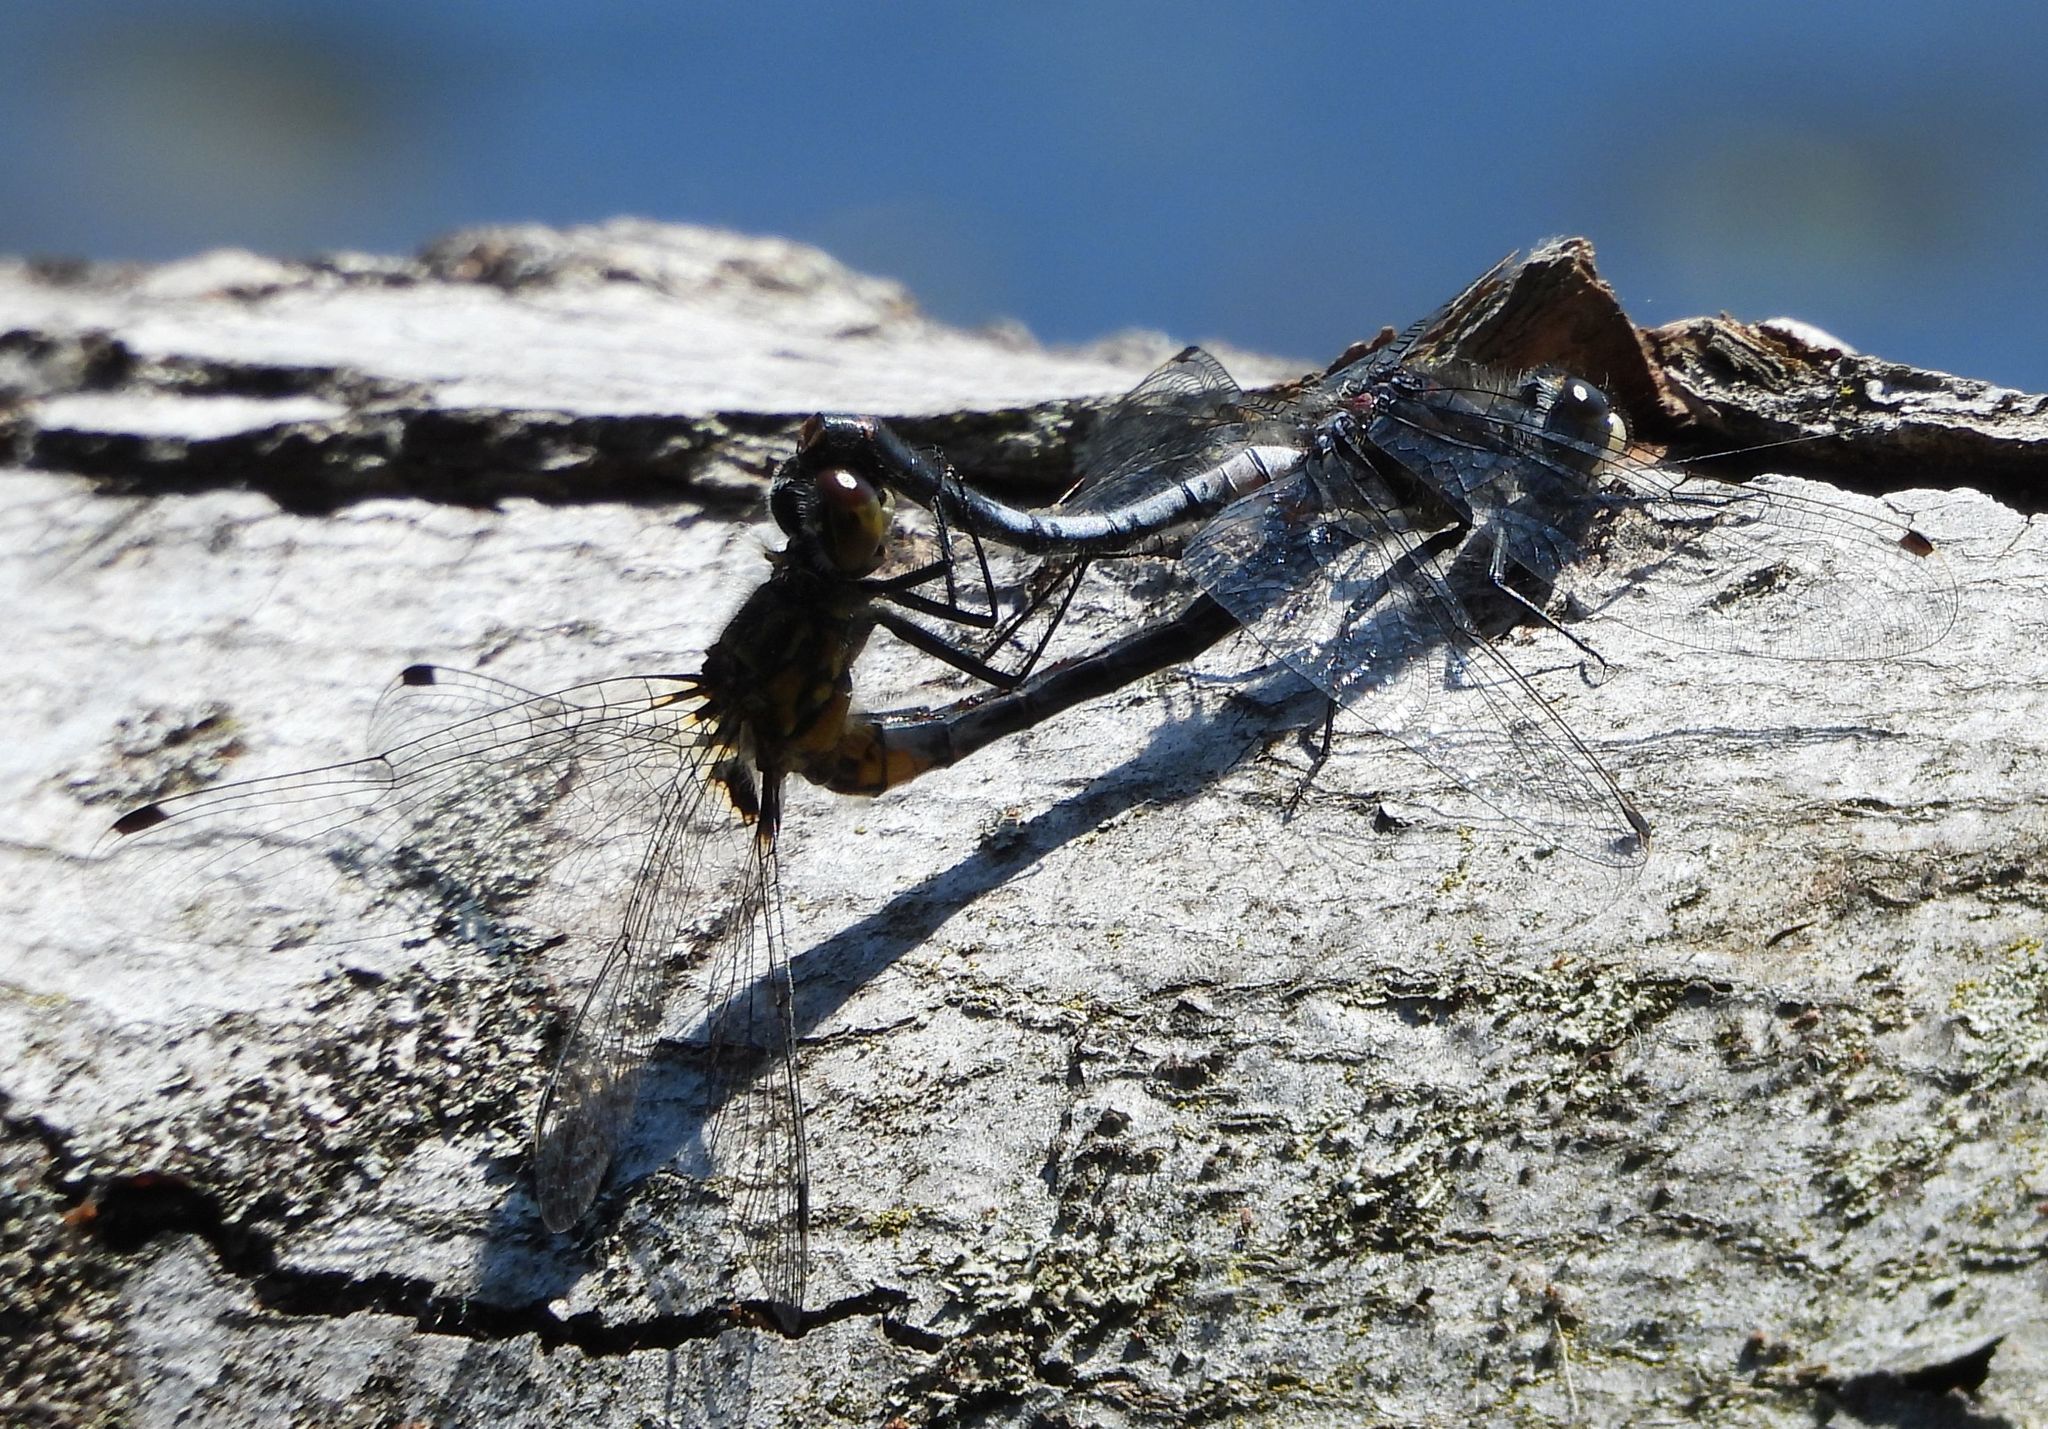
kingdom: Animalia
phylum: Arthropoda
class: Insecta
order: Odonata
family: Libellulidae
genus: Leucorrhinia
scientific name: Leucorrhinia proxima
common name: Belted whiteface
